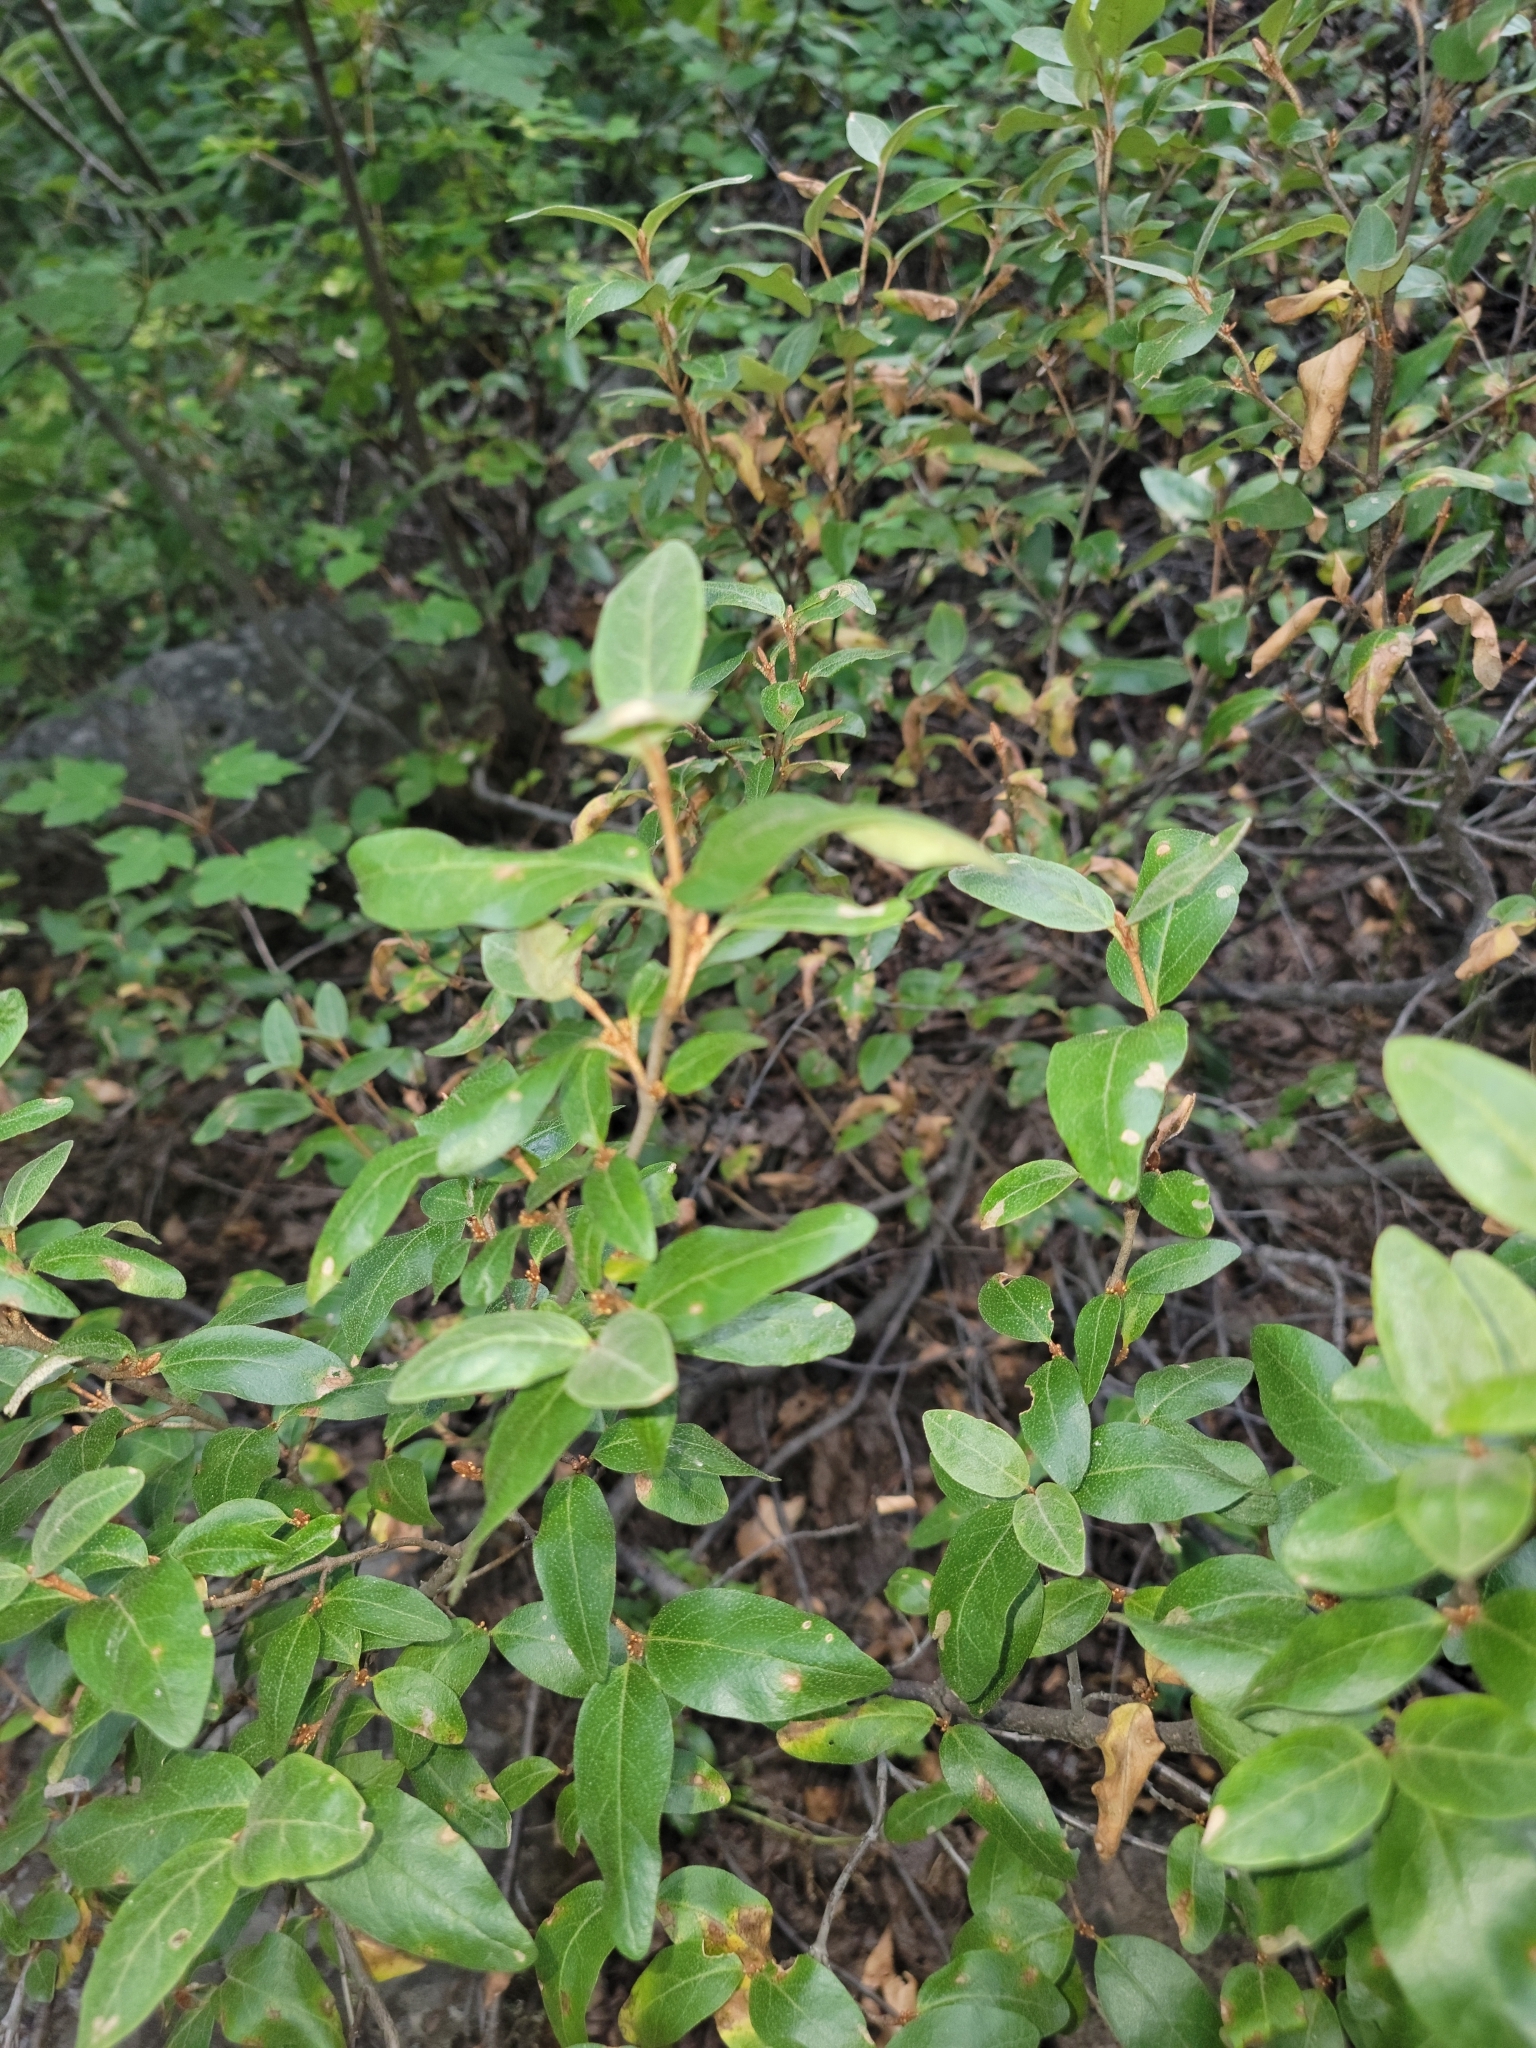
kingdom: Plantae
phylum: Tracheophyta
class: Magnoliopsida
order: Rosales
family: Elaeagnaceae
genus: Shepherdia
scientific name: Shepherdia canadensis
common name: Soapberry
